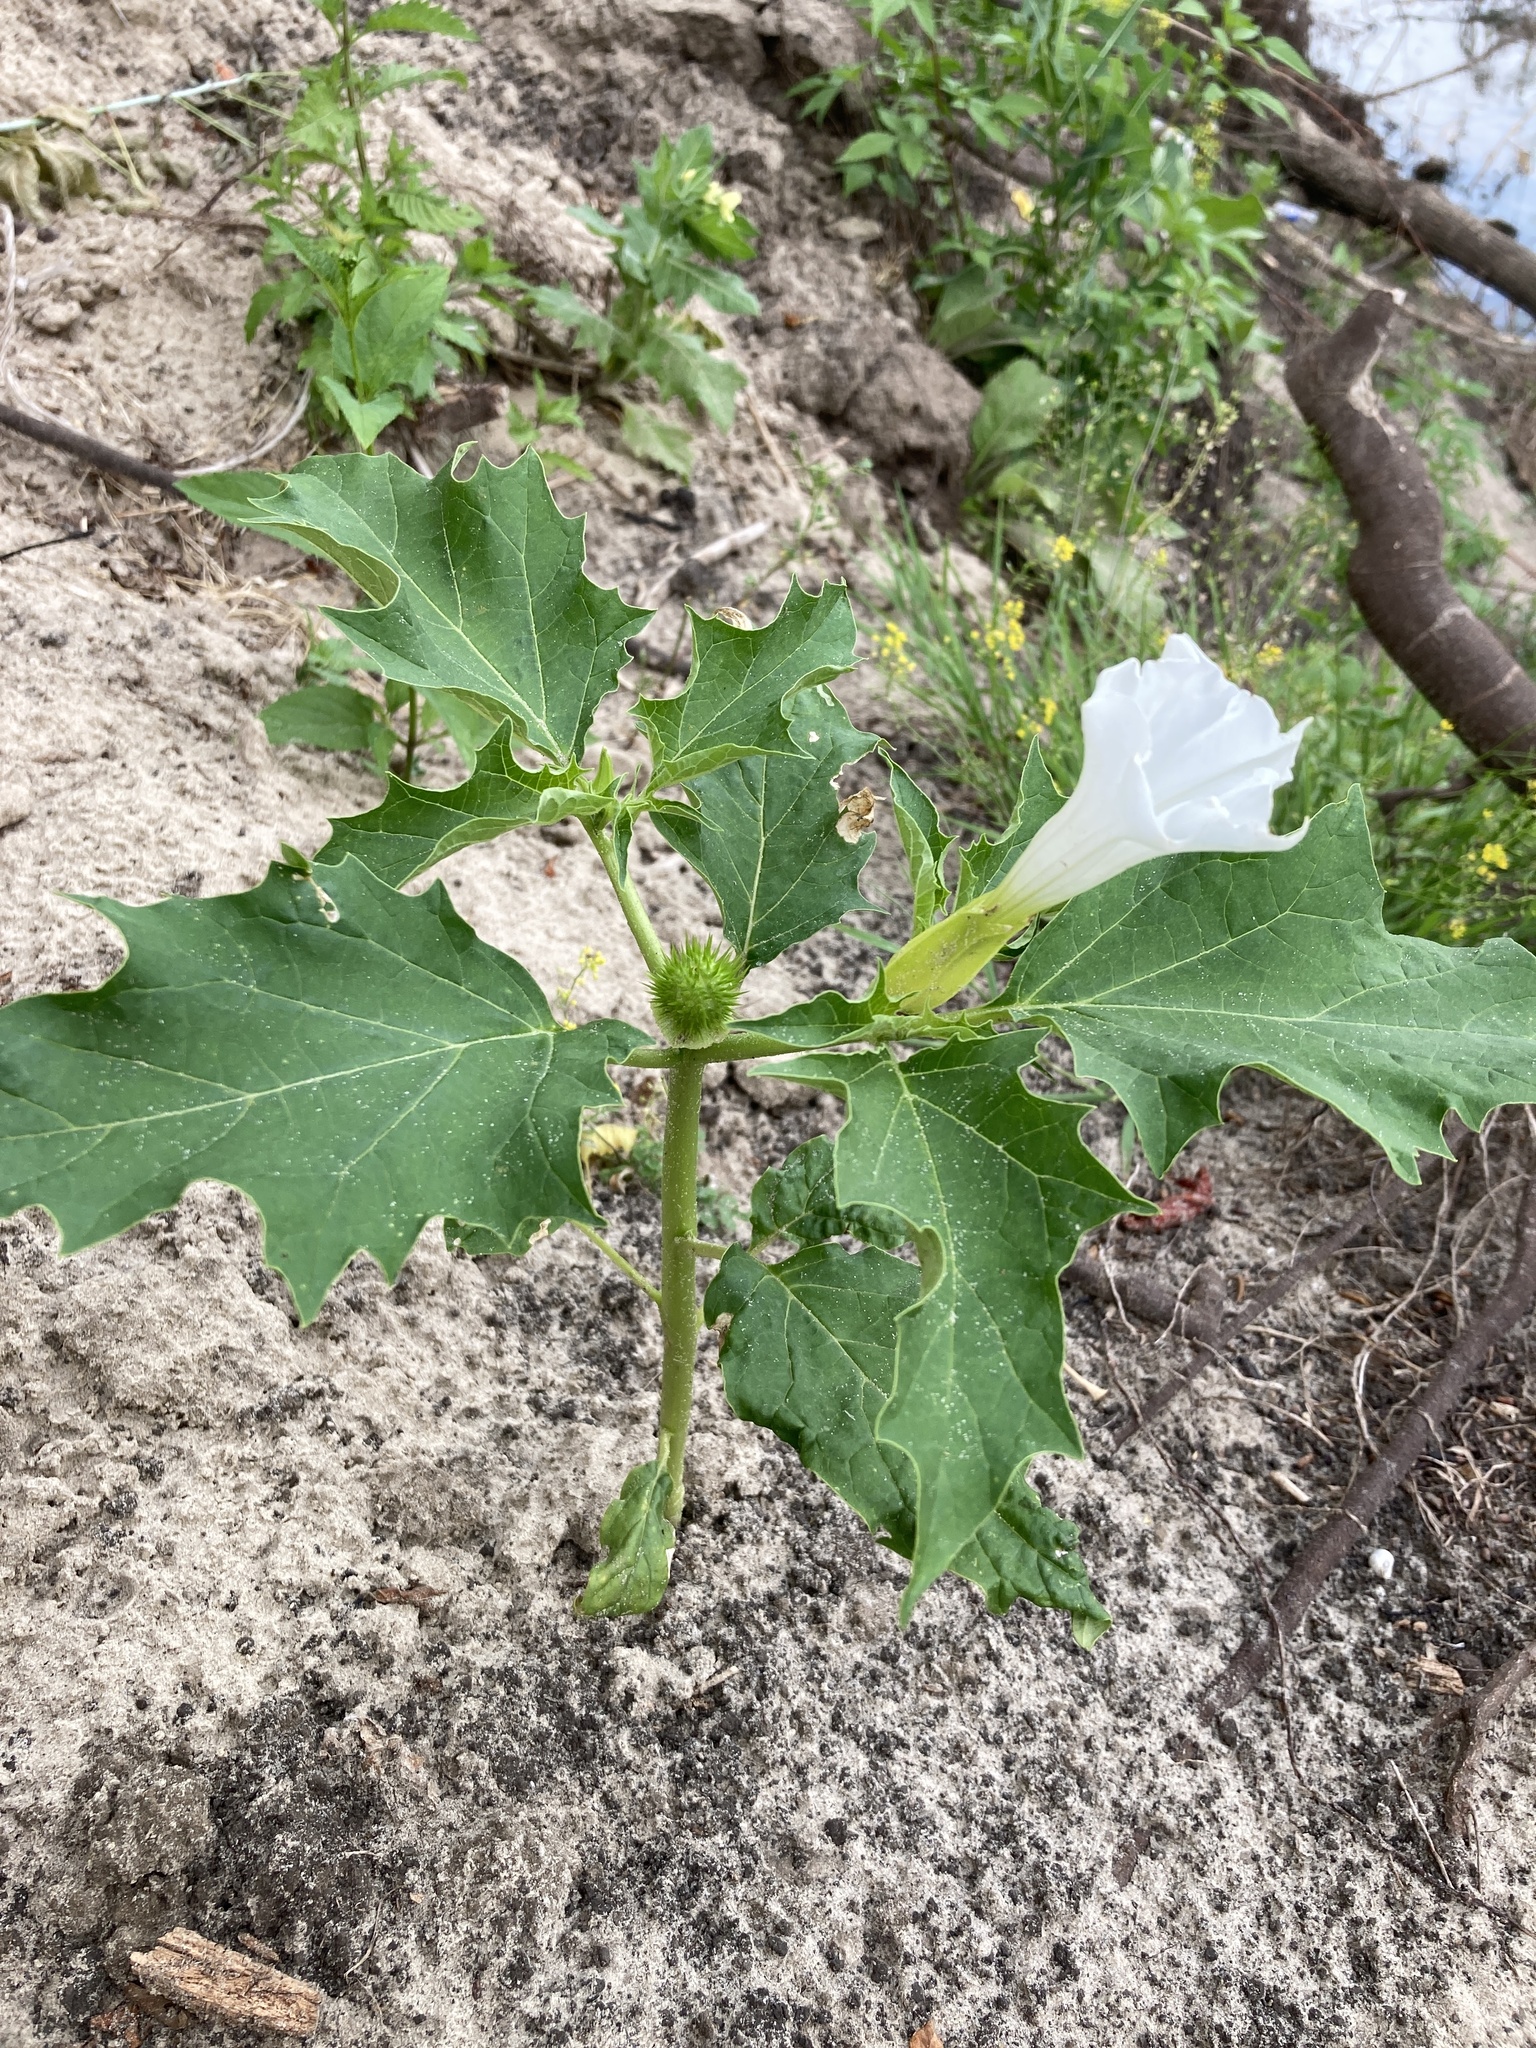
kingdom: Plantae
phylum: Tracheophyta
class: Magnoliopsida
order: Solanales
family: Solanaceae
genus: Datura
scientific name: Datura stramonium
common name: Thorn-apple
